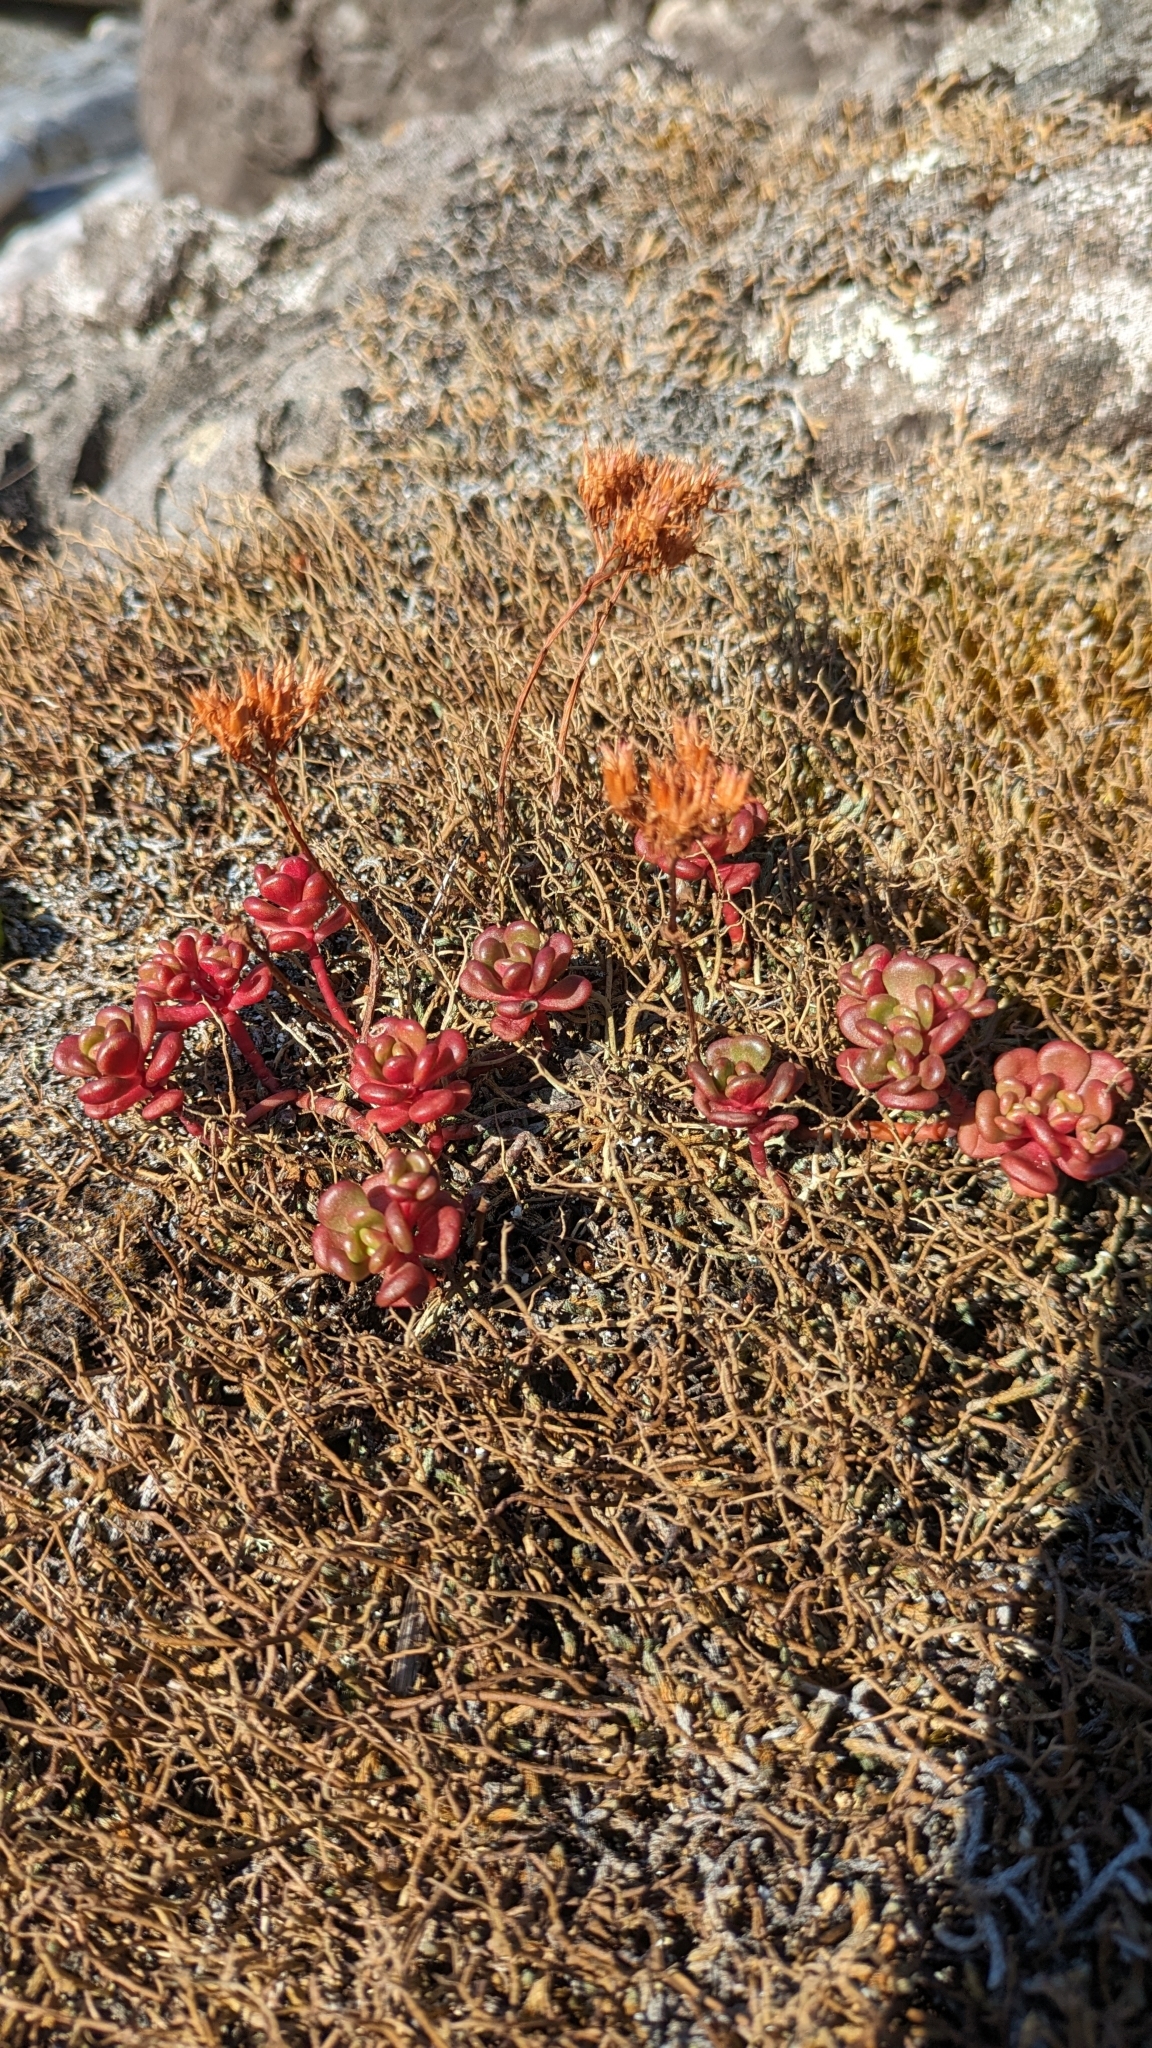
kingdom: Plantae
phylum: Tracheophyta
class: Magnoliopsida
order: Saxifragales
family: Crassulaceae
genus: Sedum
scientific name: Sedum oreganum
